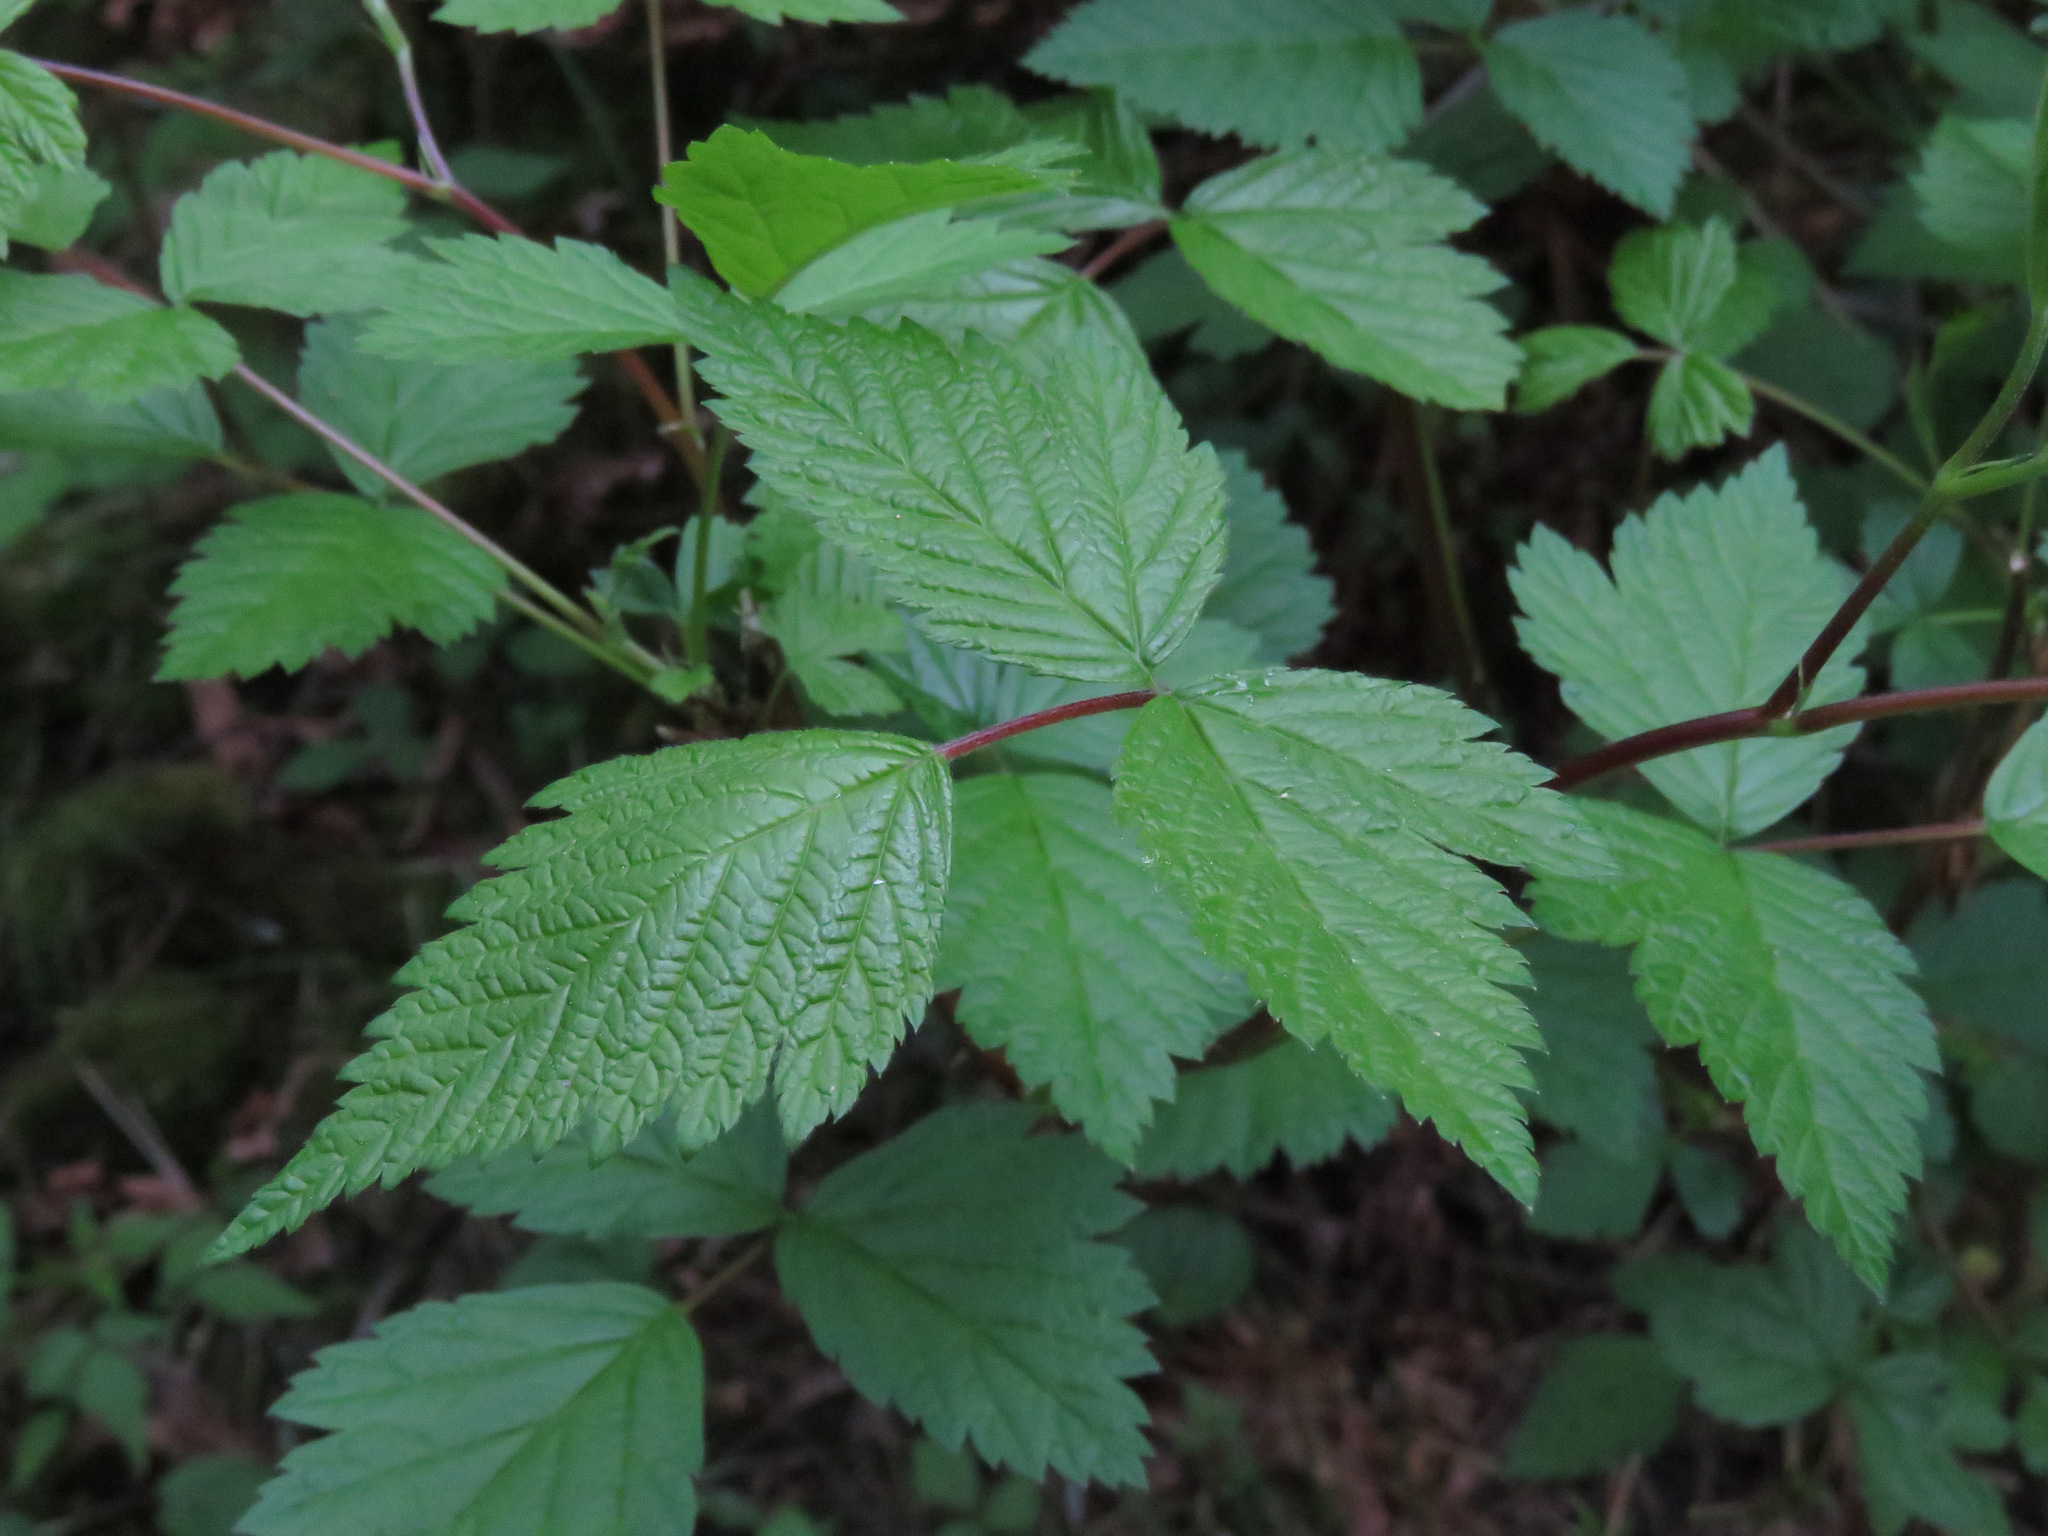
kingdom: Plantae
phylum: Tracheophyta
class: Magnoliopsida
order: Rosales
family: Rosaceae
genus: Rubus
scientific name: Rubus spectabilis
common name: Salmonberry
